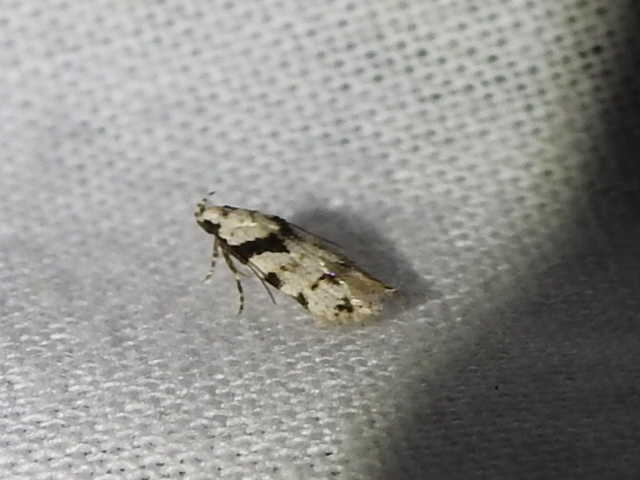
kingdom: Animalia
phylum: Arthropoda
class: Insecta
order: Lepidoptera
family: Gelechiidae
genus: Pseudotelphusa
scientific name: Pseudotelphusa palliderosacella
